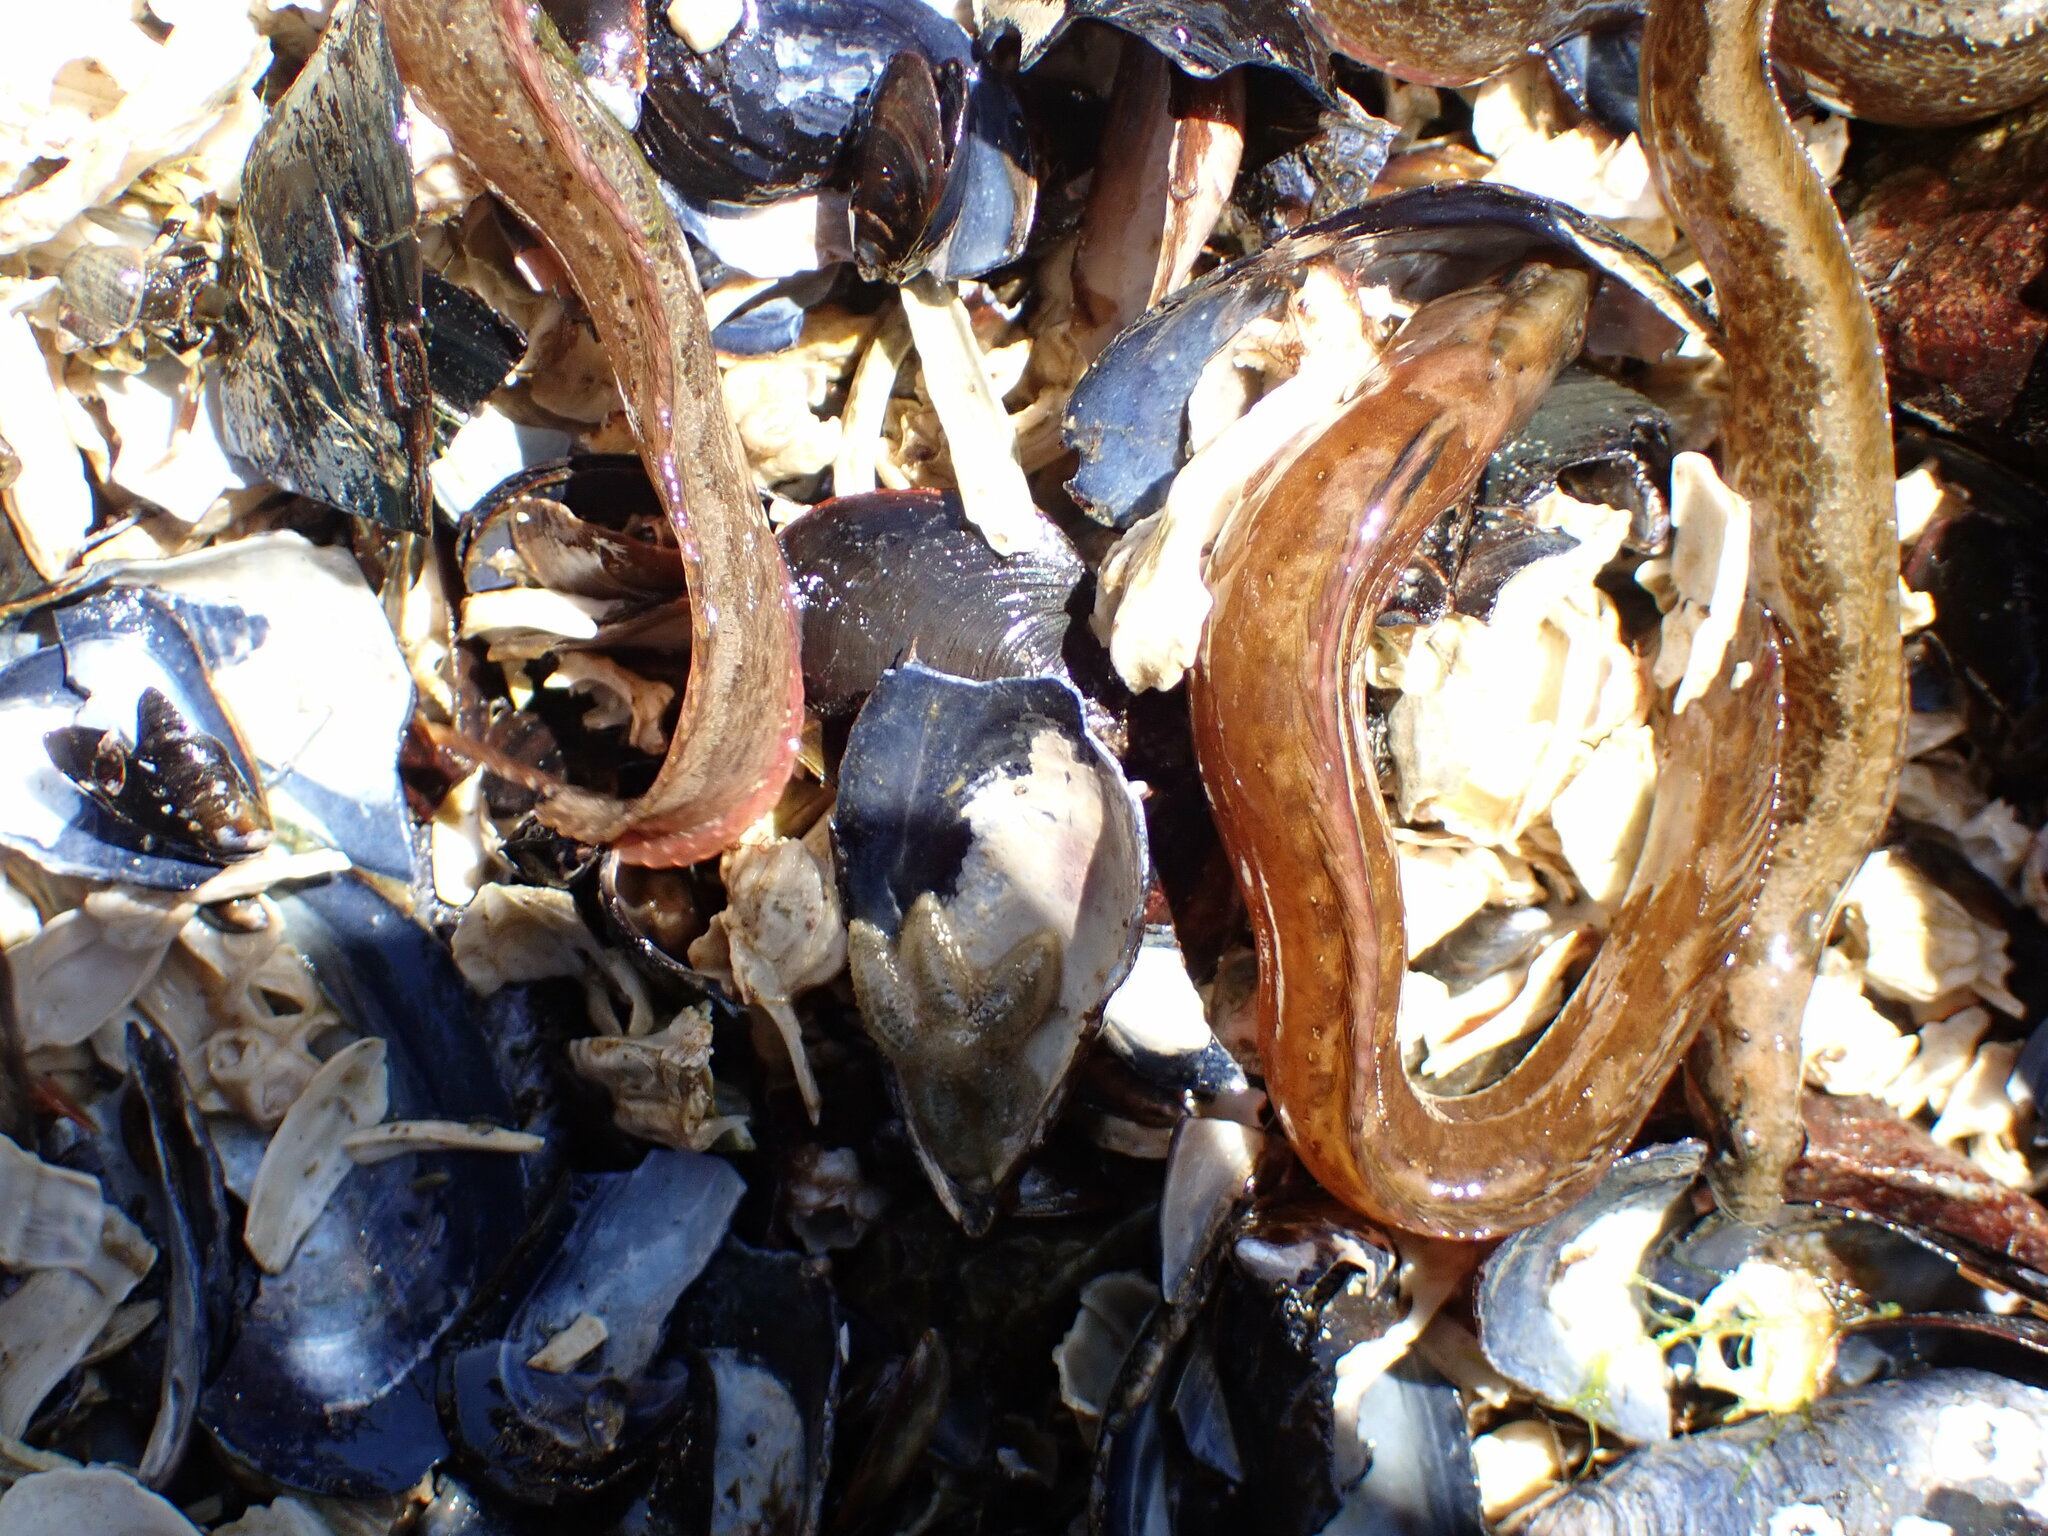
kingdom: Animalia
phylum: Chordata
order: Perciformes
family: Stichaeidae
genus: Anoplarchus
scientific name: Anoplarchus purpurescens
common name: High cockscomb
